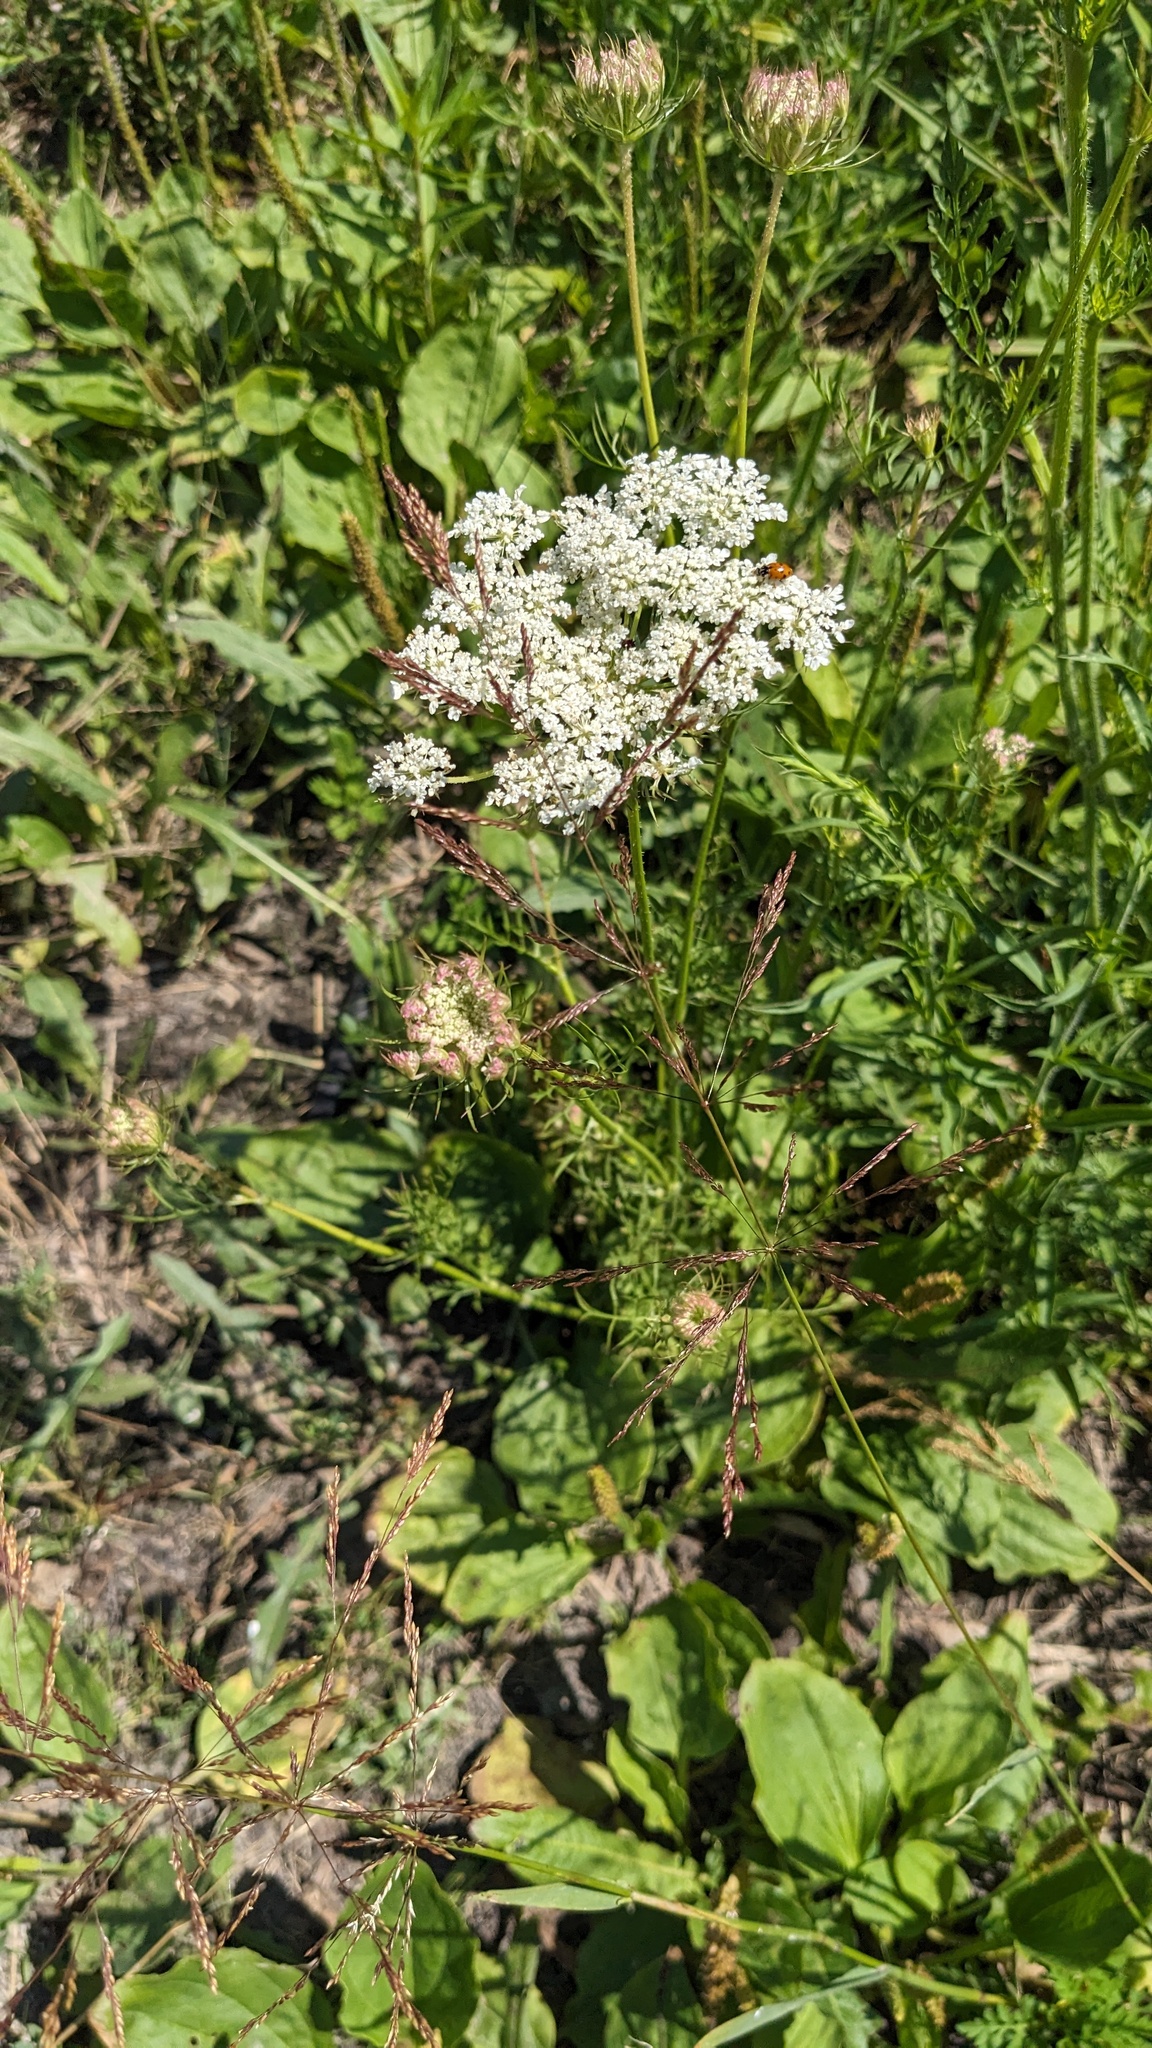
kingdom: Plantae
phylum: Tracheophyta
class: Magnoliopsida
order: Apiales
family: Apiaceae
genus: Daucus
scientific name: Daucus carota
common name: Wild carrot
